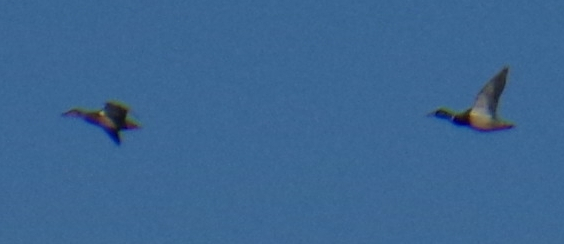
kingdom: Animalia
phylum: Chordata
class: Aves
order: Anseriformes
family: Anatidae
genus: Anas
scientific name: Anas platyrhynchos
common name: Mallard
